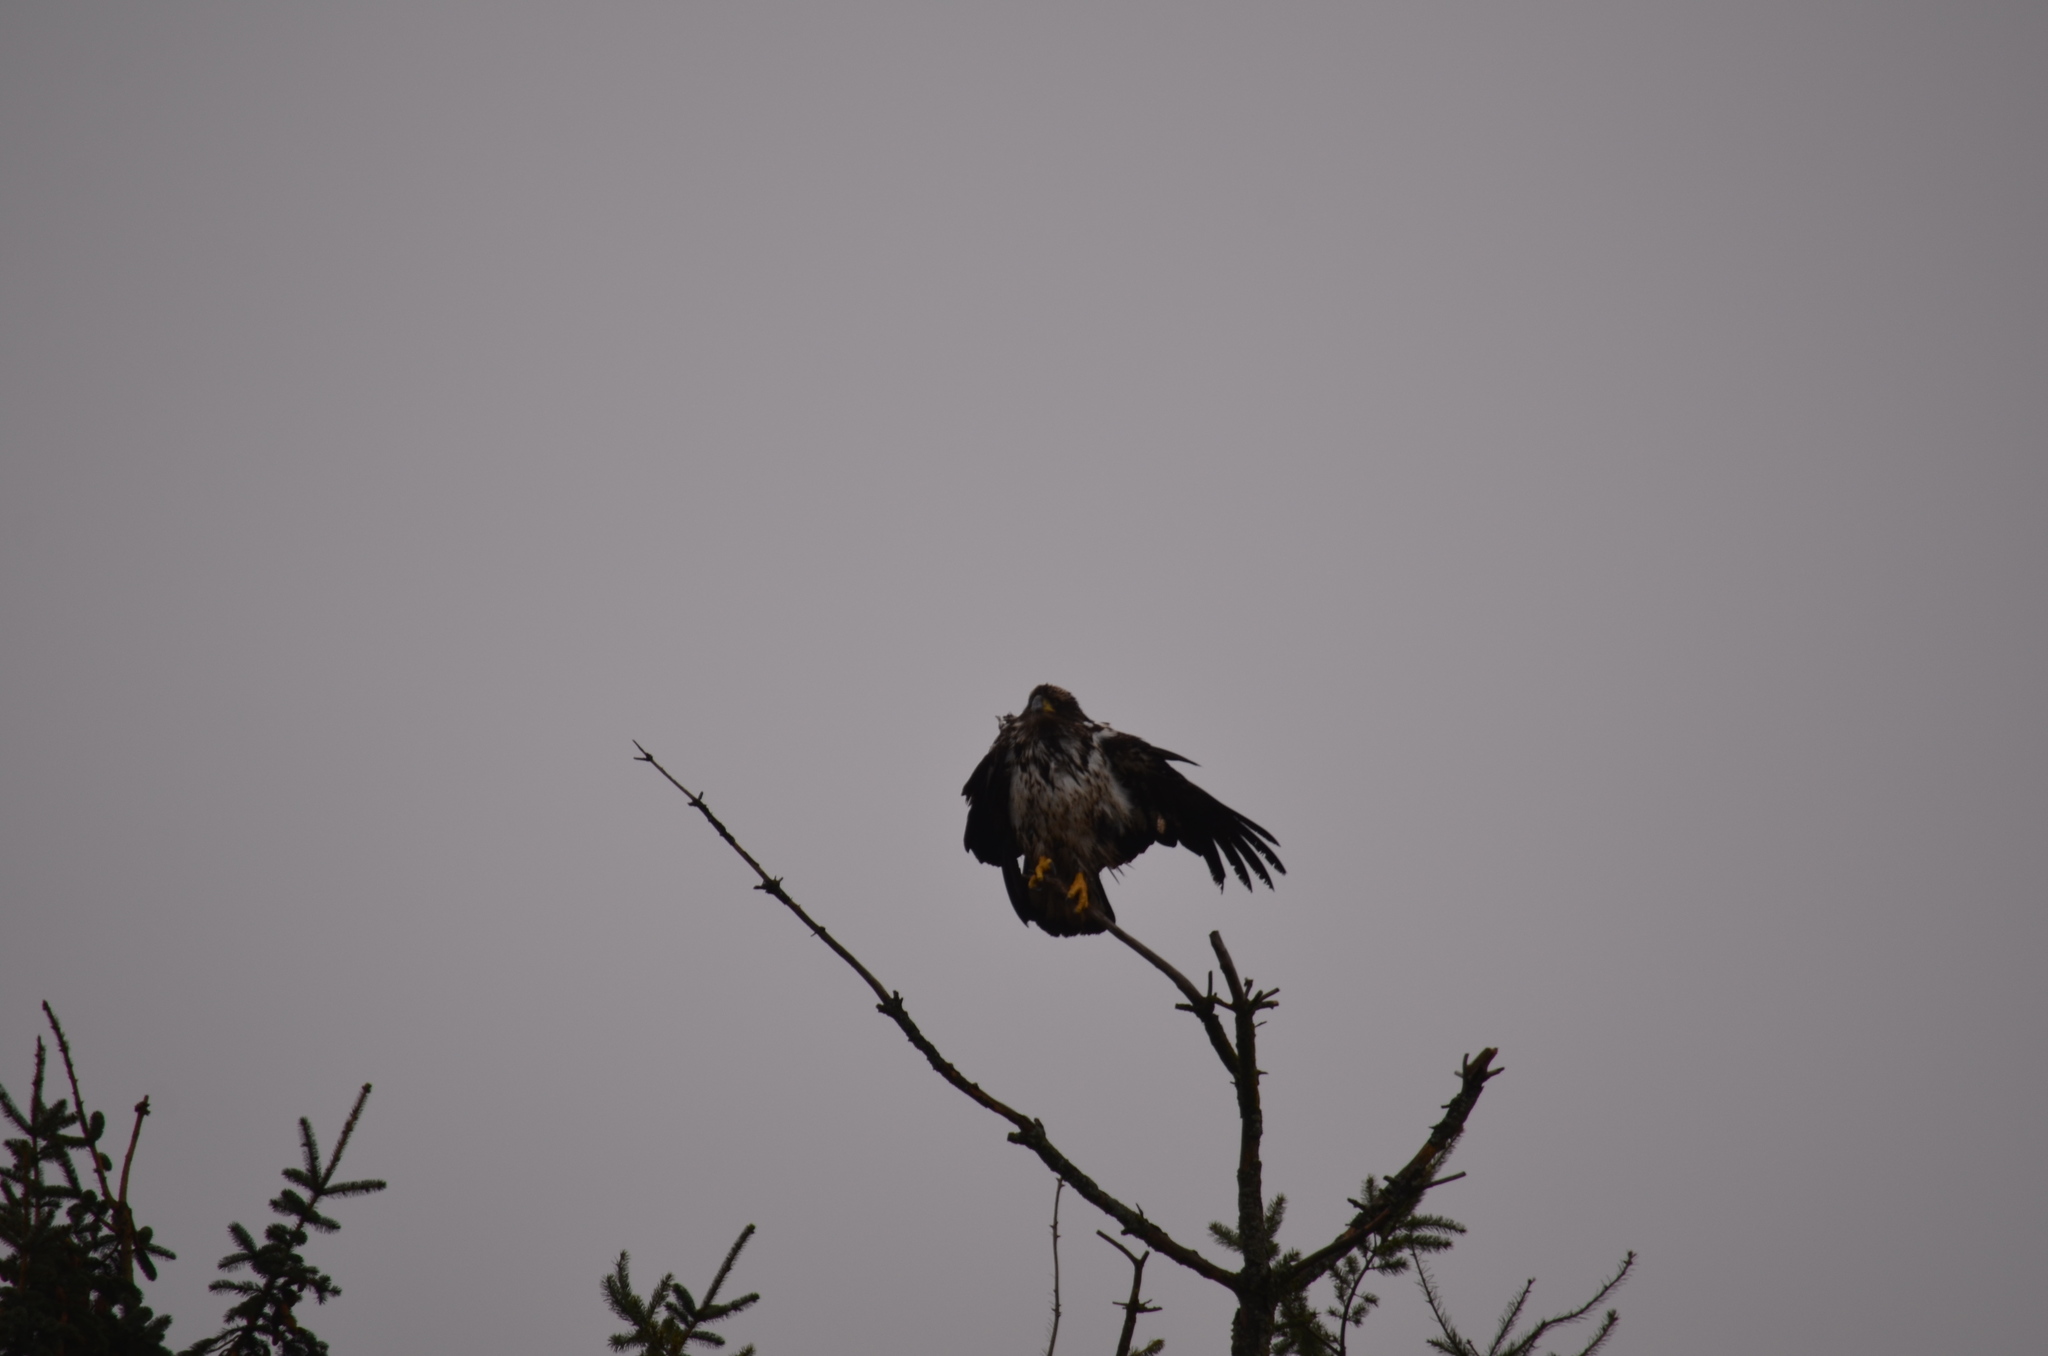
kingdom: Animalia
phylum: Chordata
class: Aves
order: Accipitriformes
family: Accipitridae
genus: Haliaeetus
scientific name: Haliaeetus leucocephalus
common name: Bald eagle
